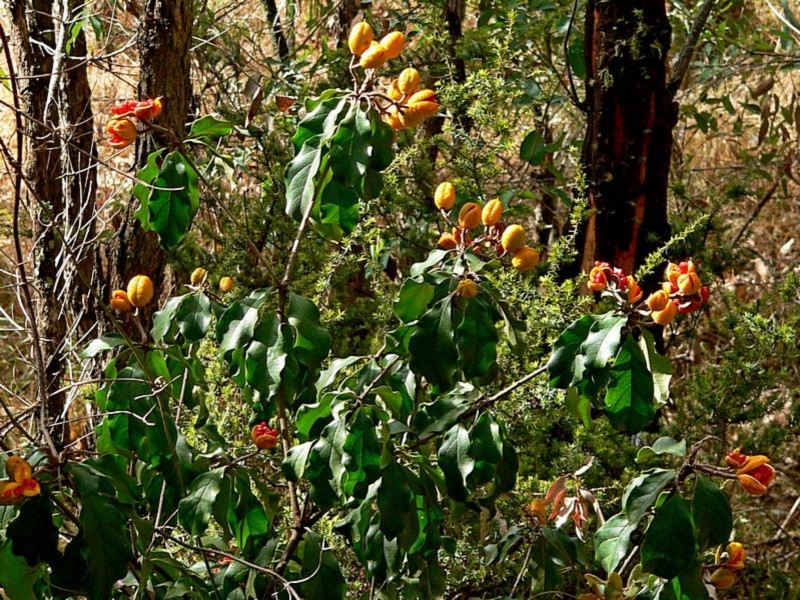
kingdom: Plantae
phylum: Tracheophyta
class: Magnoliopsida
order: Apiales
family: Pittosporaceae
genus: Pittosporum
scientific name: Pittosporum revolutum
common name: Brisbane-laurel
